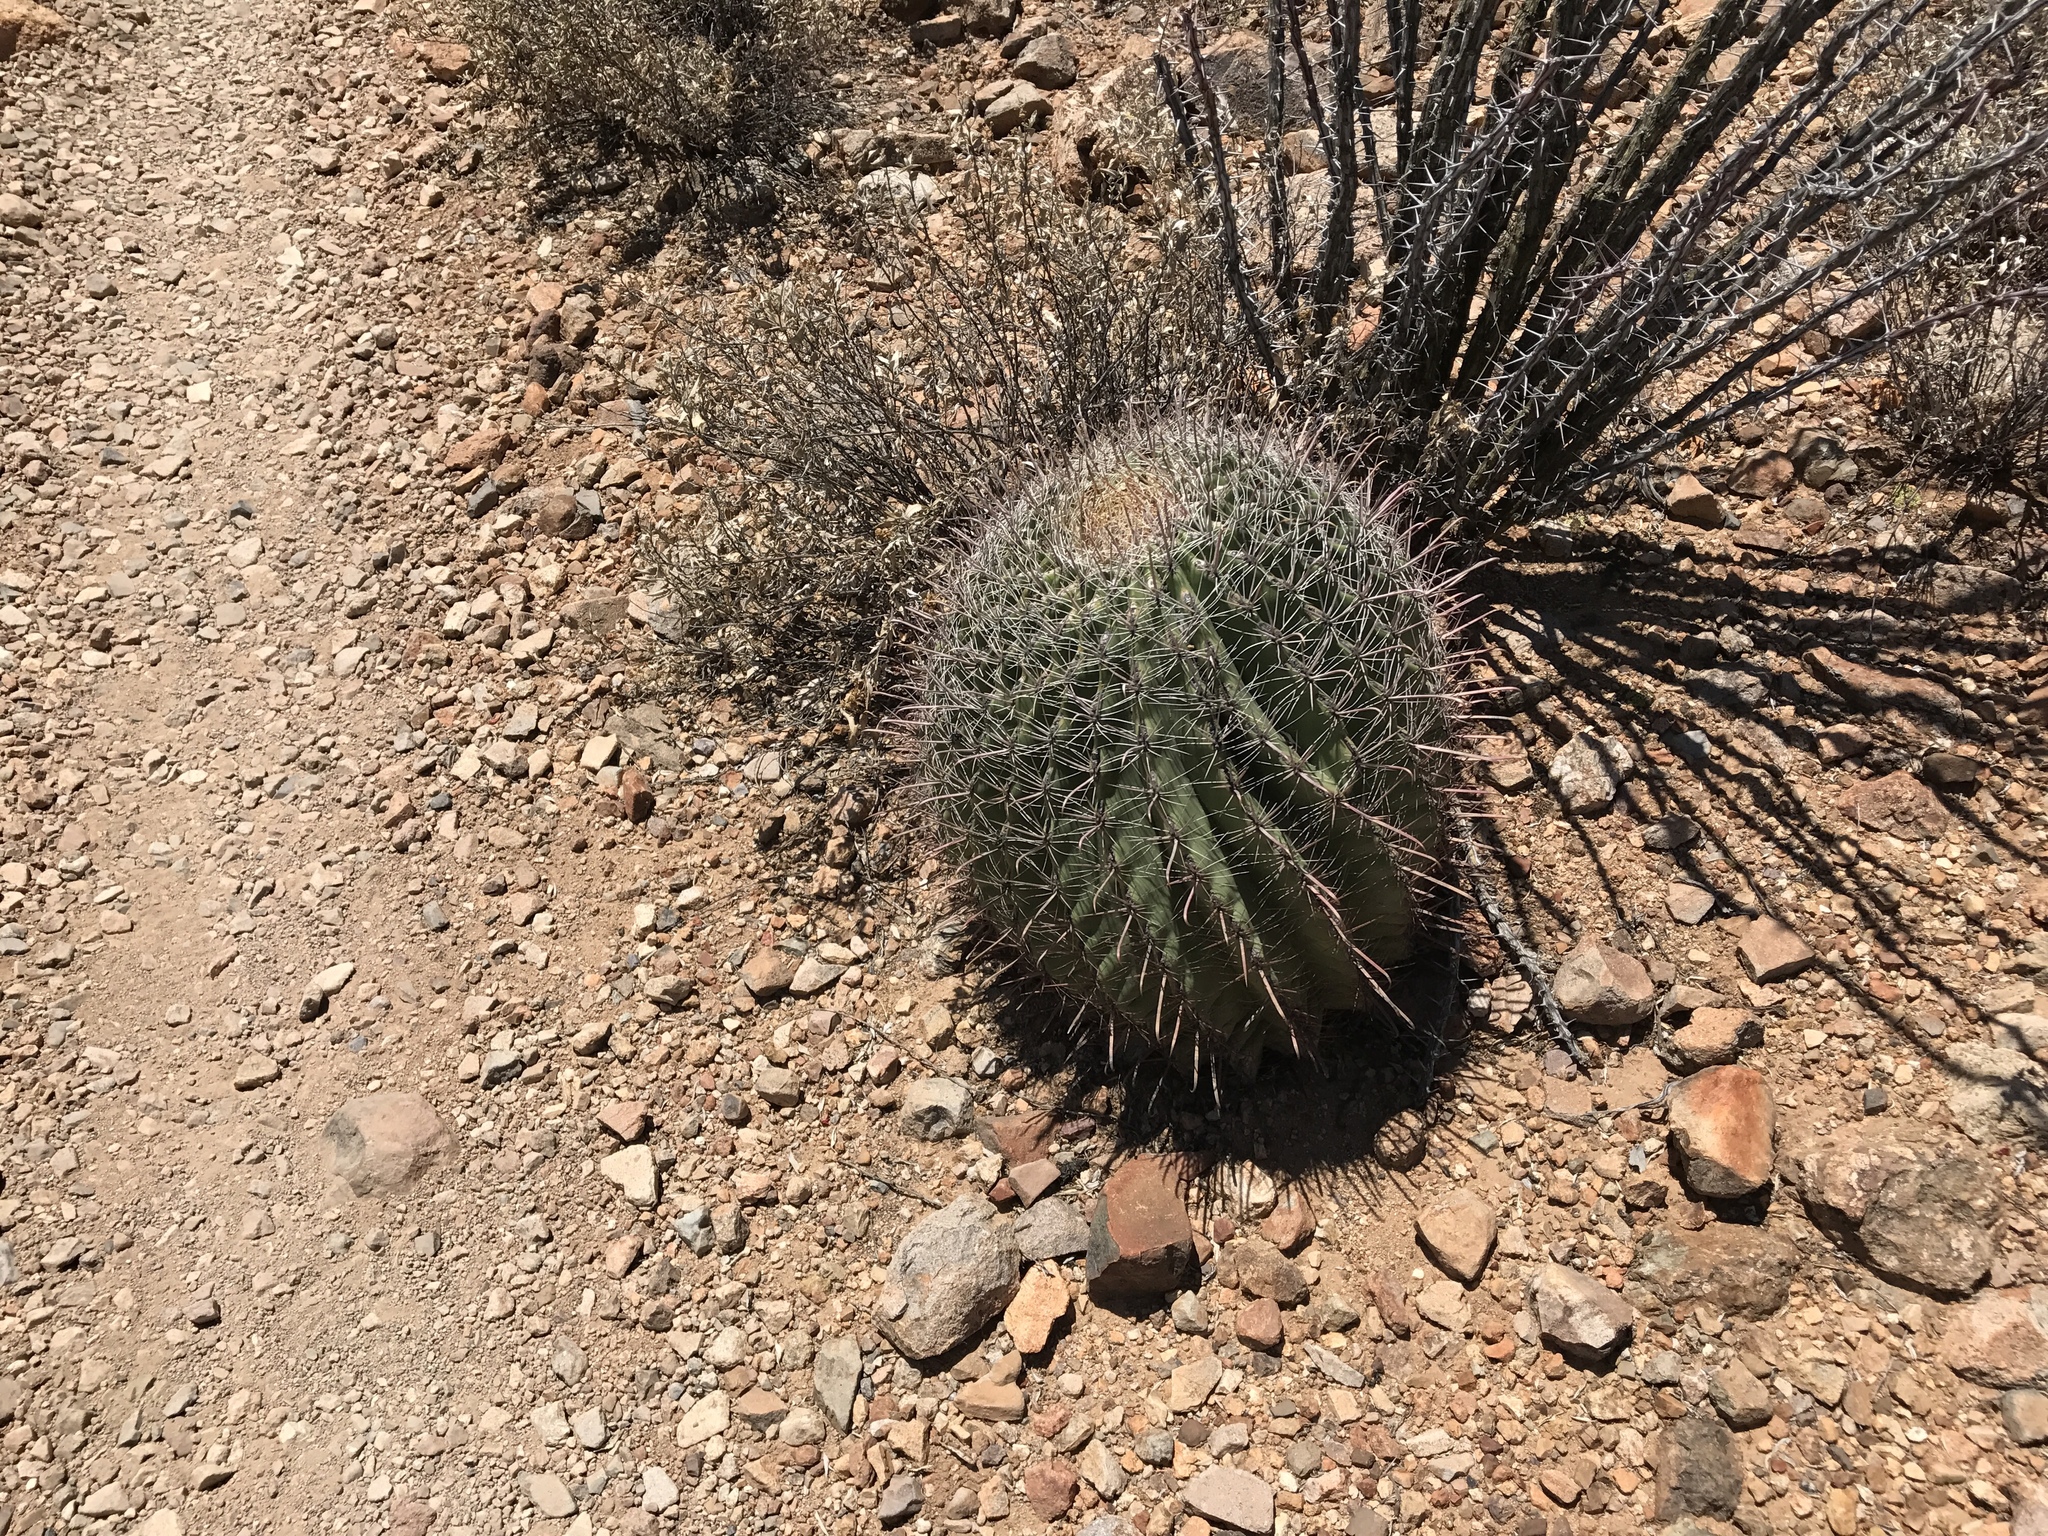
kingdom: Plantae
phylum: Tracheophyta
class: Magnoliopsida
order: Caryophyllales
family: Cactaceae
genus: Ferocactus
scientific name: Ferocactus wislizeni
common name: Candy barrel cactus
